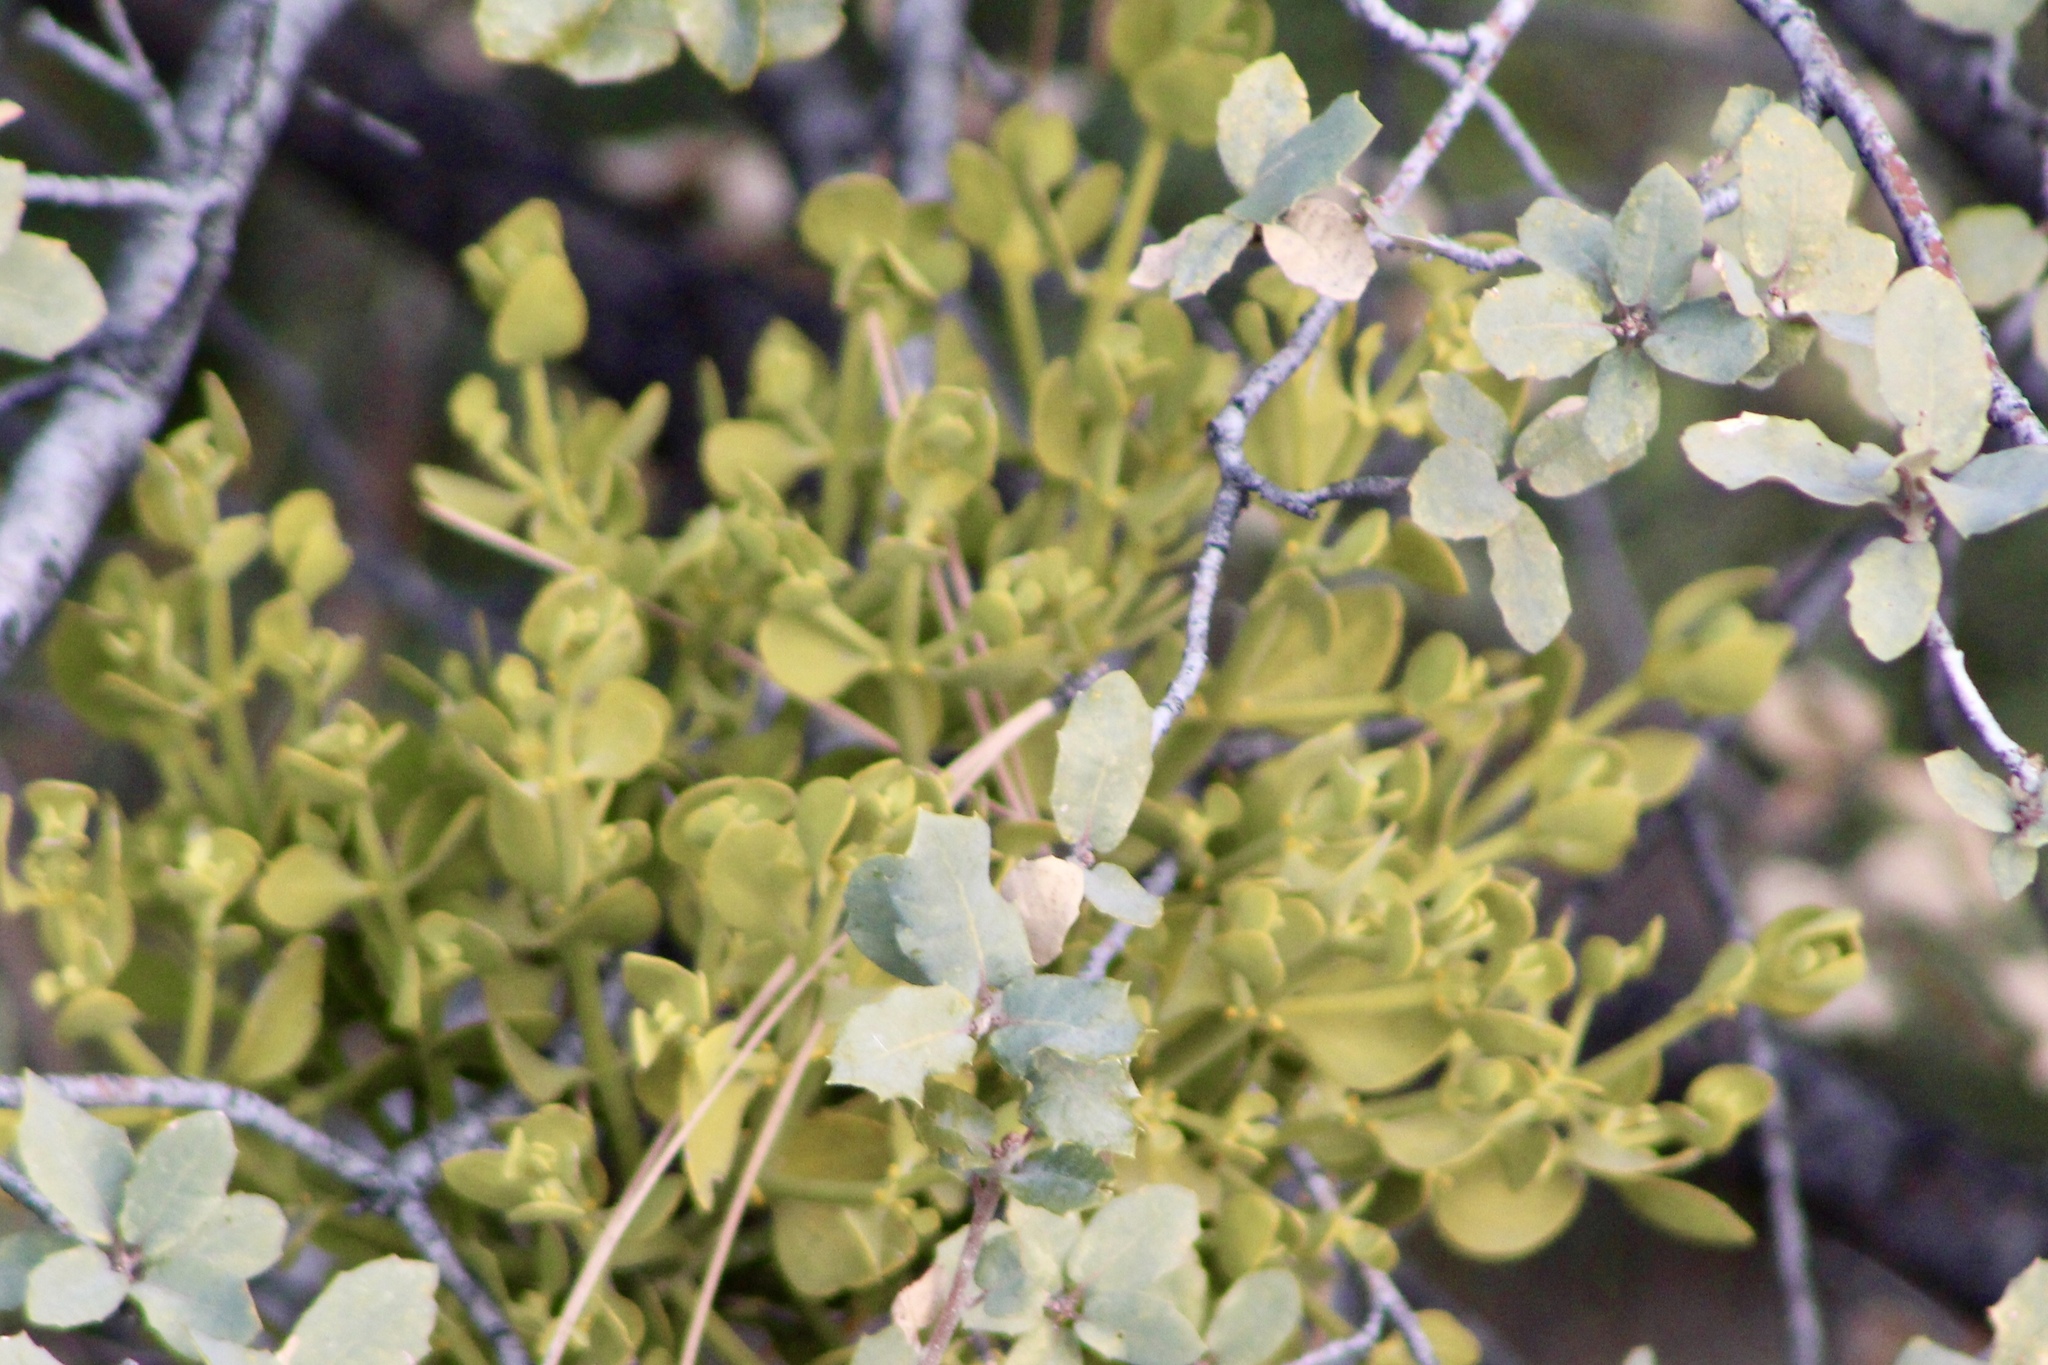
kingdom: Plantae
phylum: Tracheophyta
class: Magnoliopsida
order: Santalales
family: Viscaceae
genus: Phoradendron
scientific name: Phoradendron coryae
